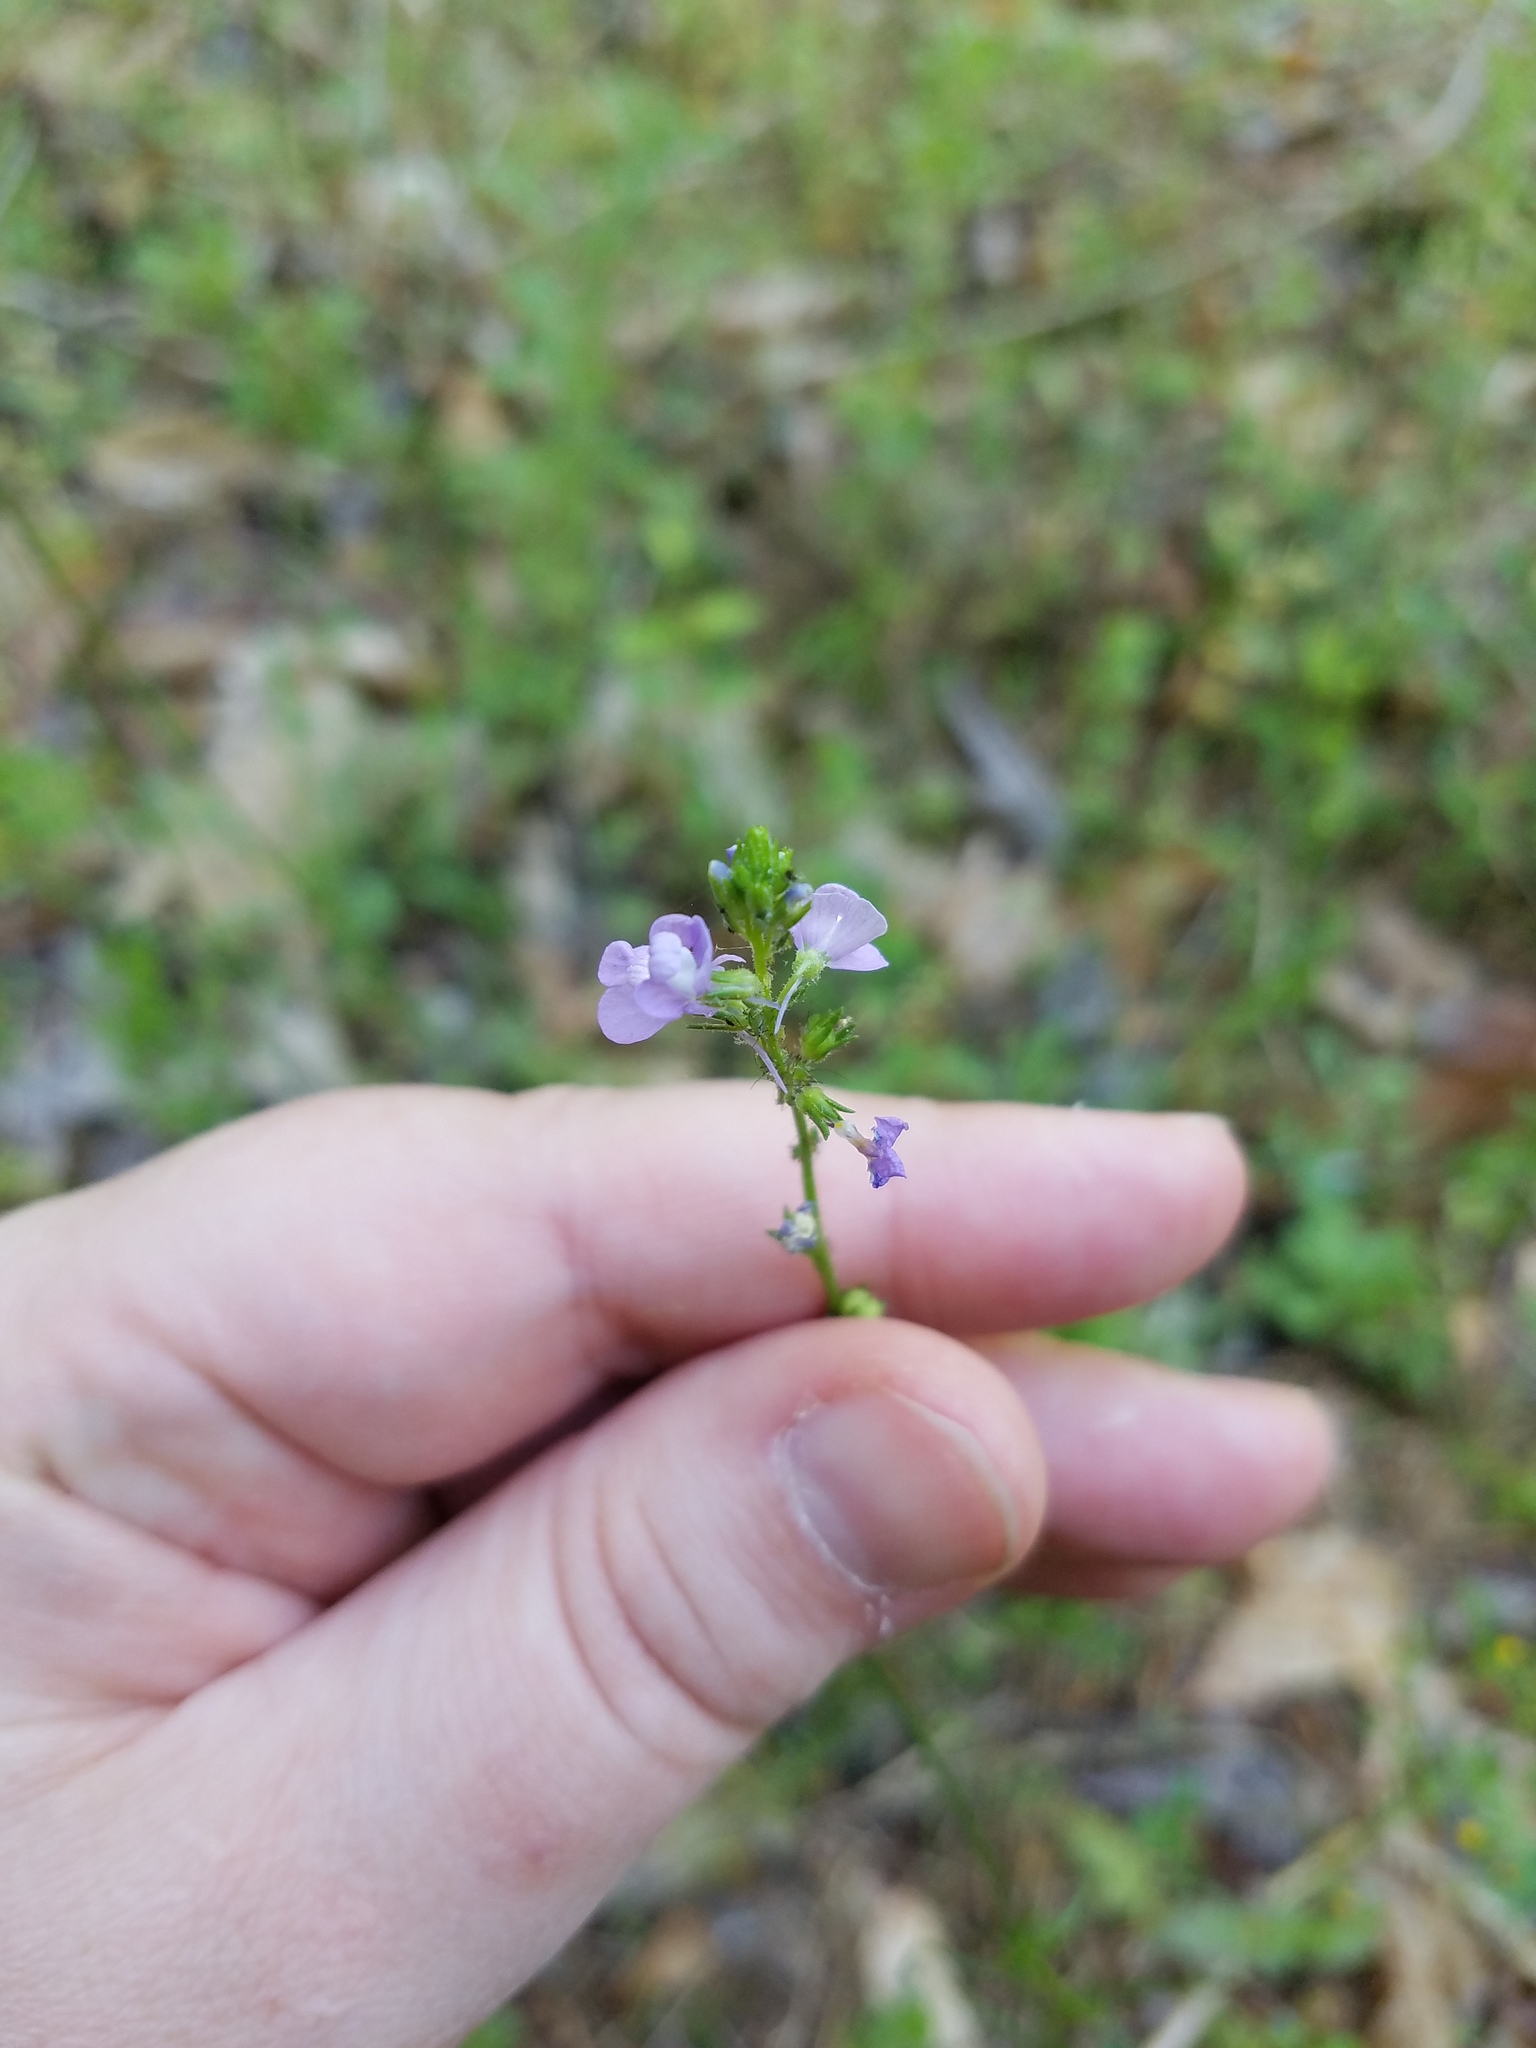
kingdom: Plantae
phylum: Tracheophyta
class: Magnoliopsida
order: Lamiales
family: Plantaginaceae
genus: Nuttallanthus
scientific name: Nuttallanthus canadensis
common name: Blue toadflax
